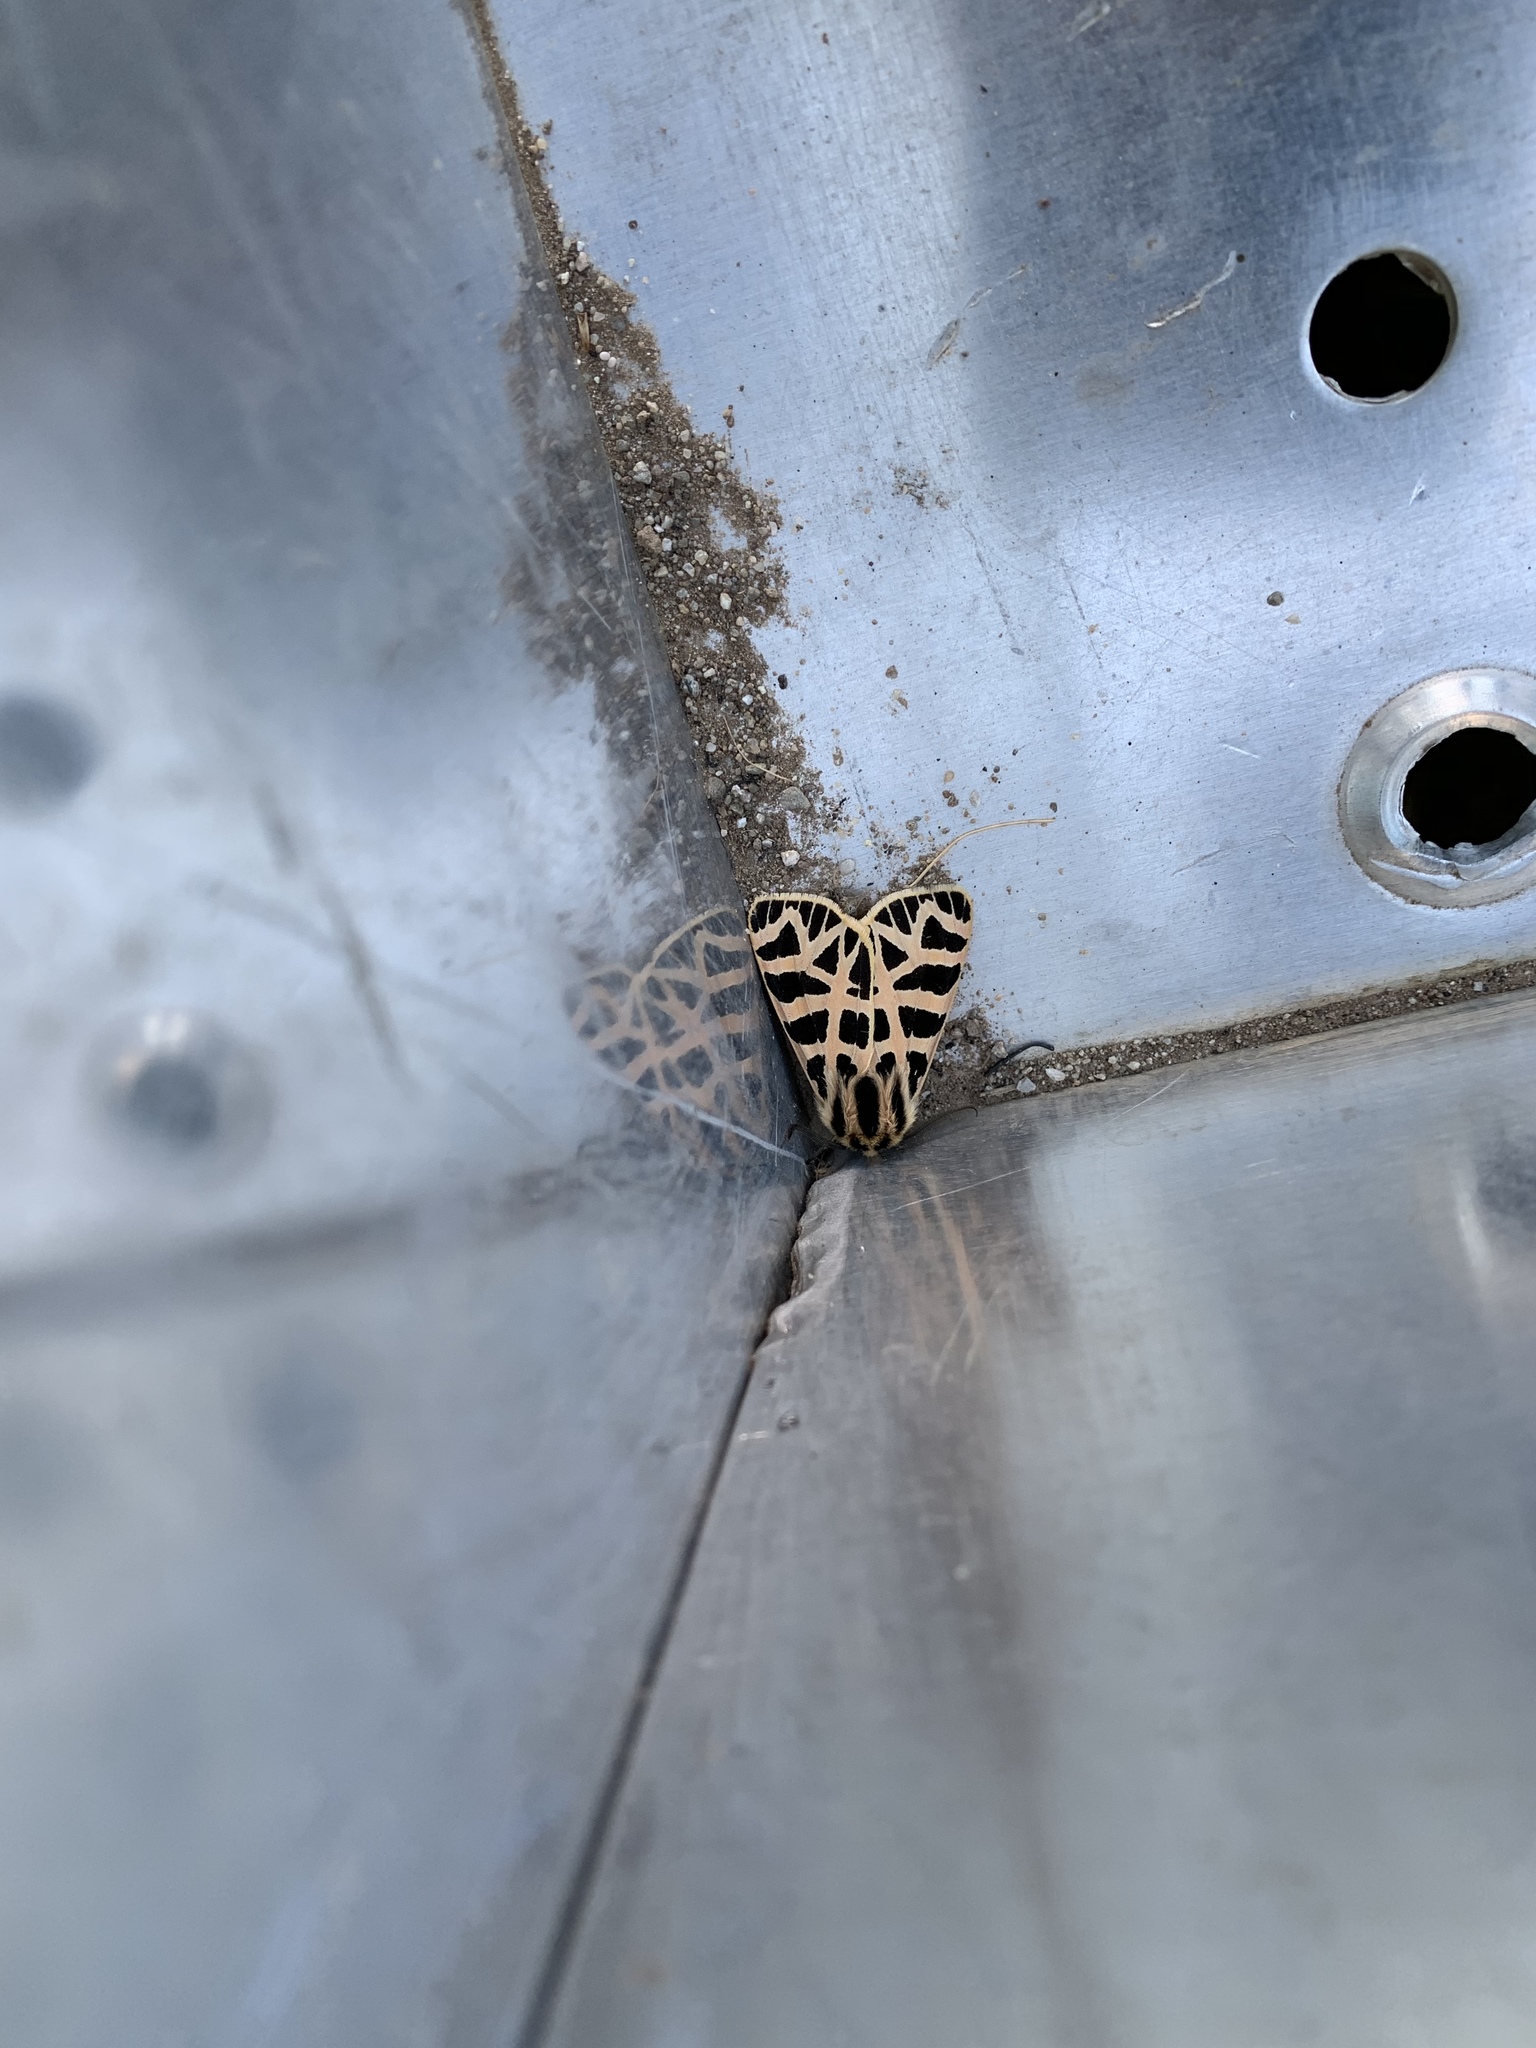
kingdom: Animalia
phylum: Arthropoda
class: Insecta
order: Lepidoptera
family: Erebidae
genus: Apantesis
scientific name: Apantesis
